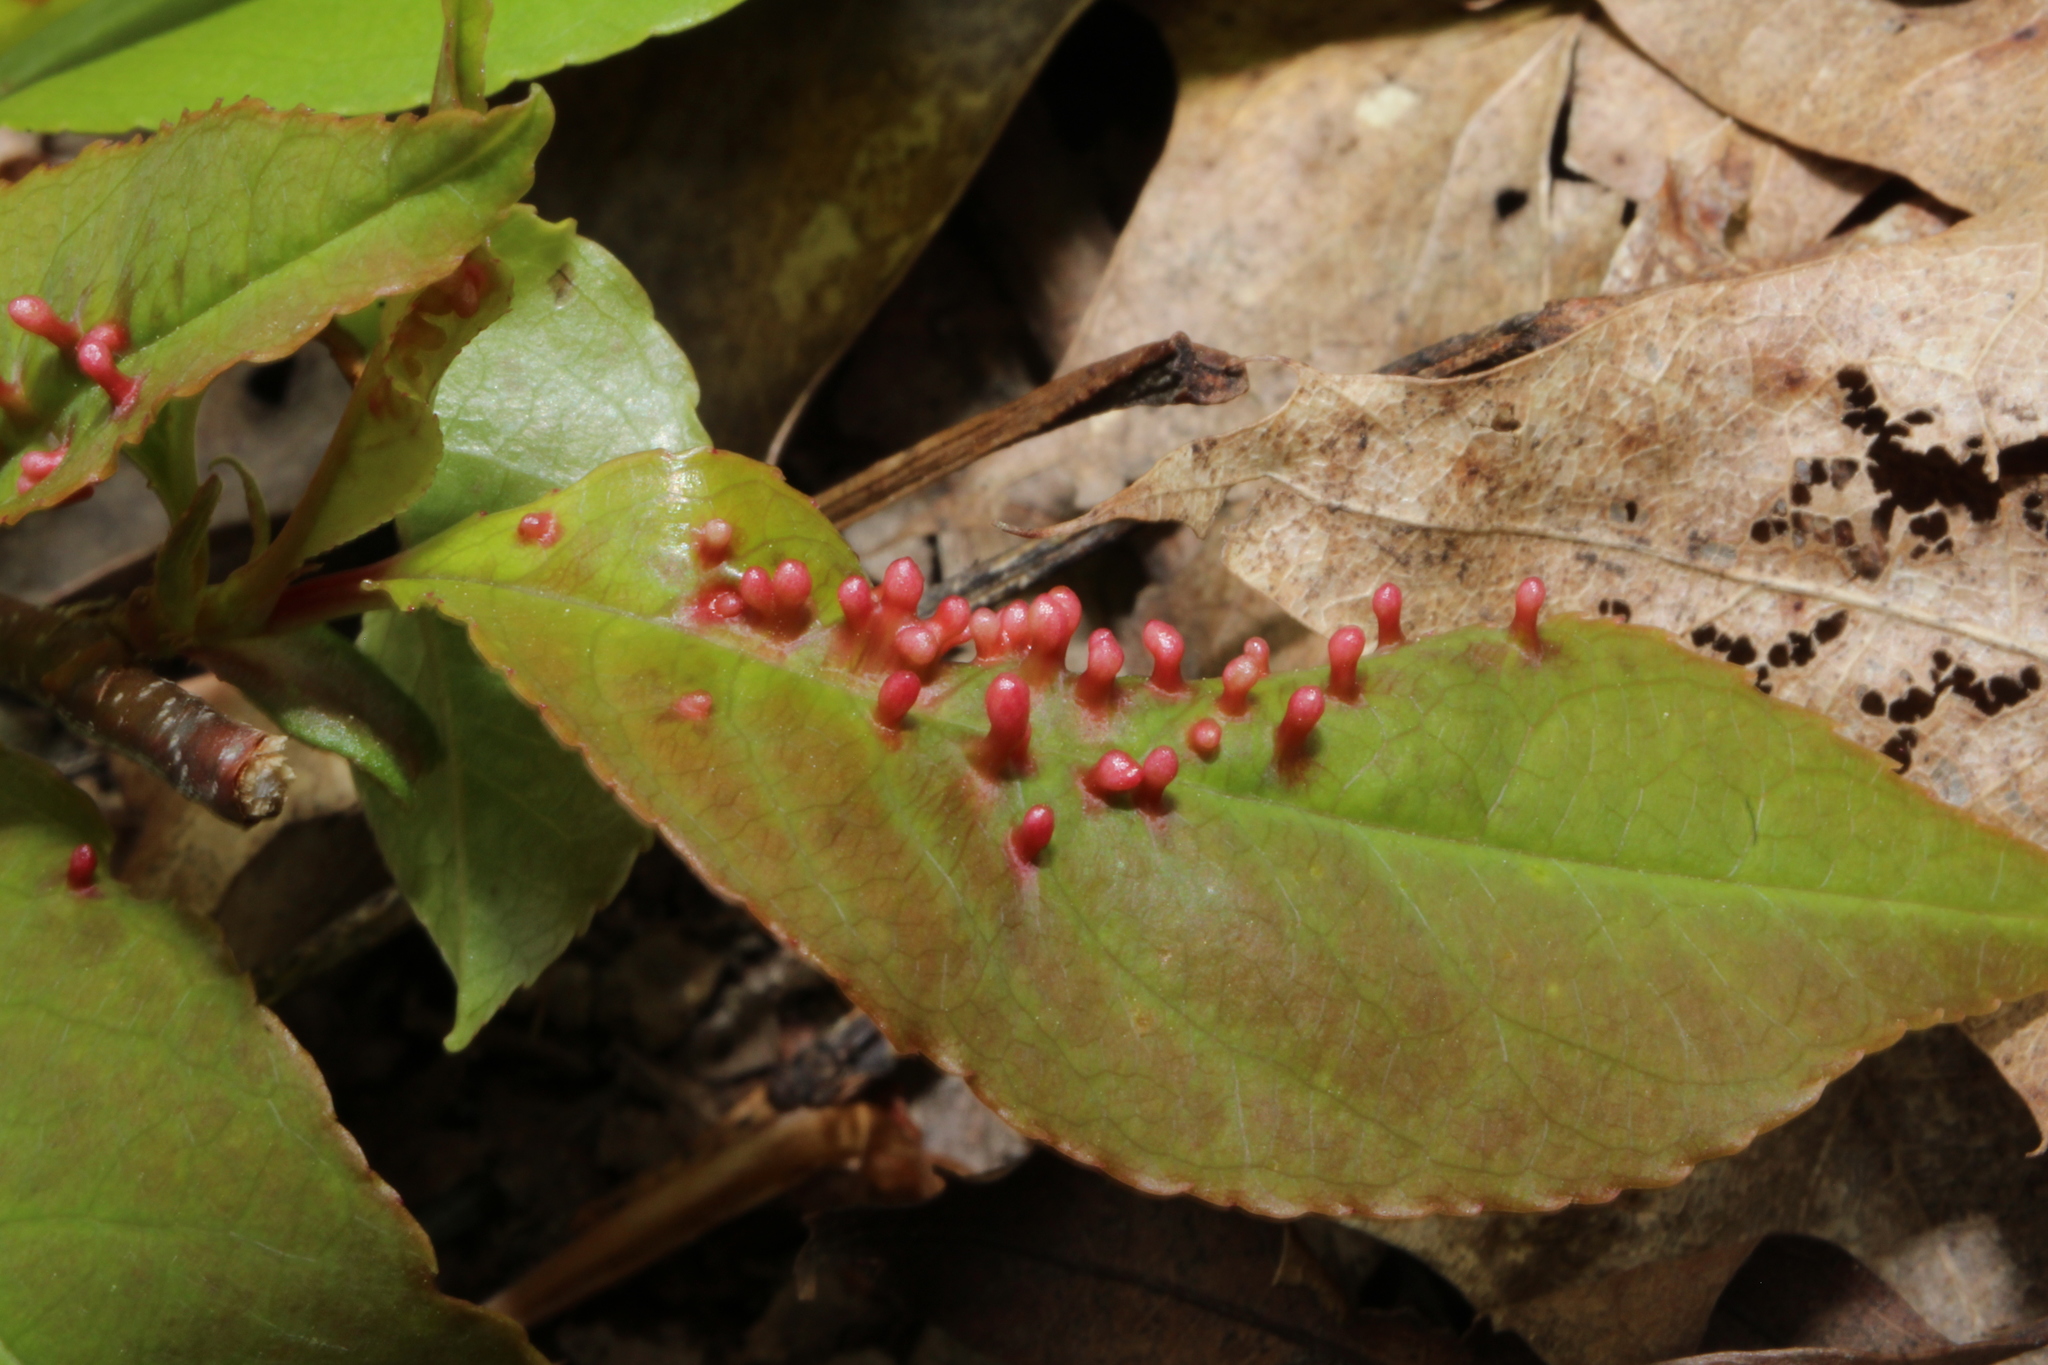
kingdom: Animalia
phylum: Arthropoda
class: Arachnida
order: Trombidiformes
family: Eriophyidae
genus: Eriophyes
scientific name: Eriophyes
